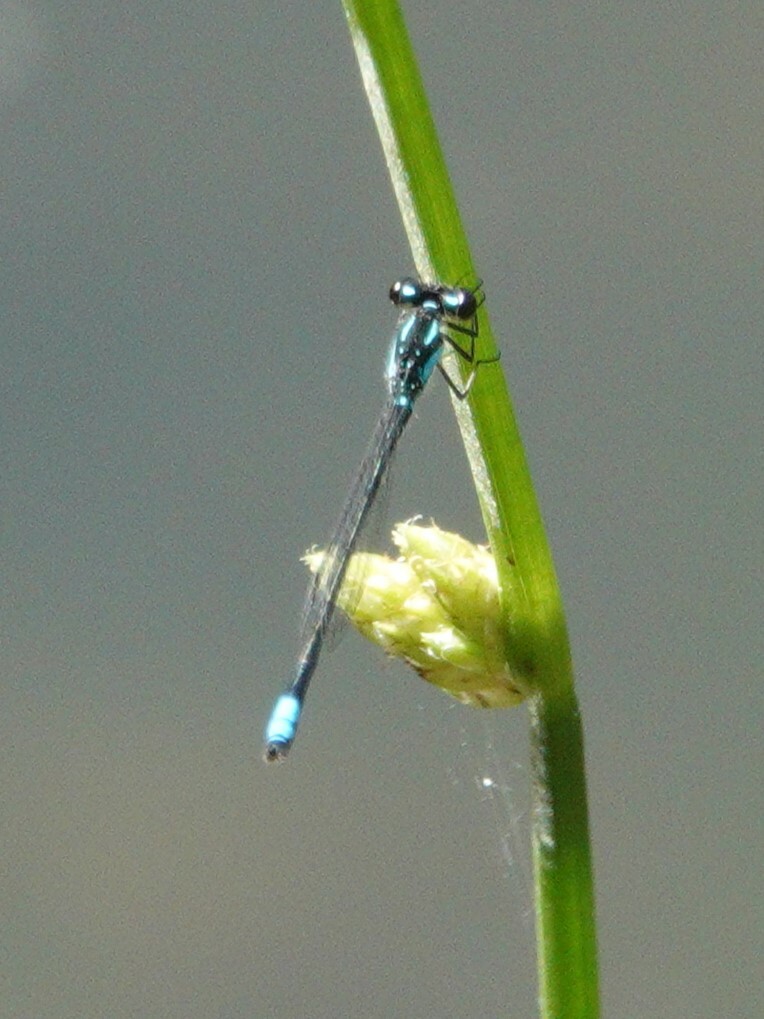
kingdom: Animalia
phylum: Arthropoda
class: Insecta
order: Odonata
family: Coenagrionidae
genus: Enallagma
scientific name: Enallagma geminatum
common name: Skimming bluet
